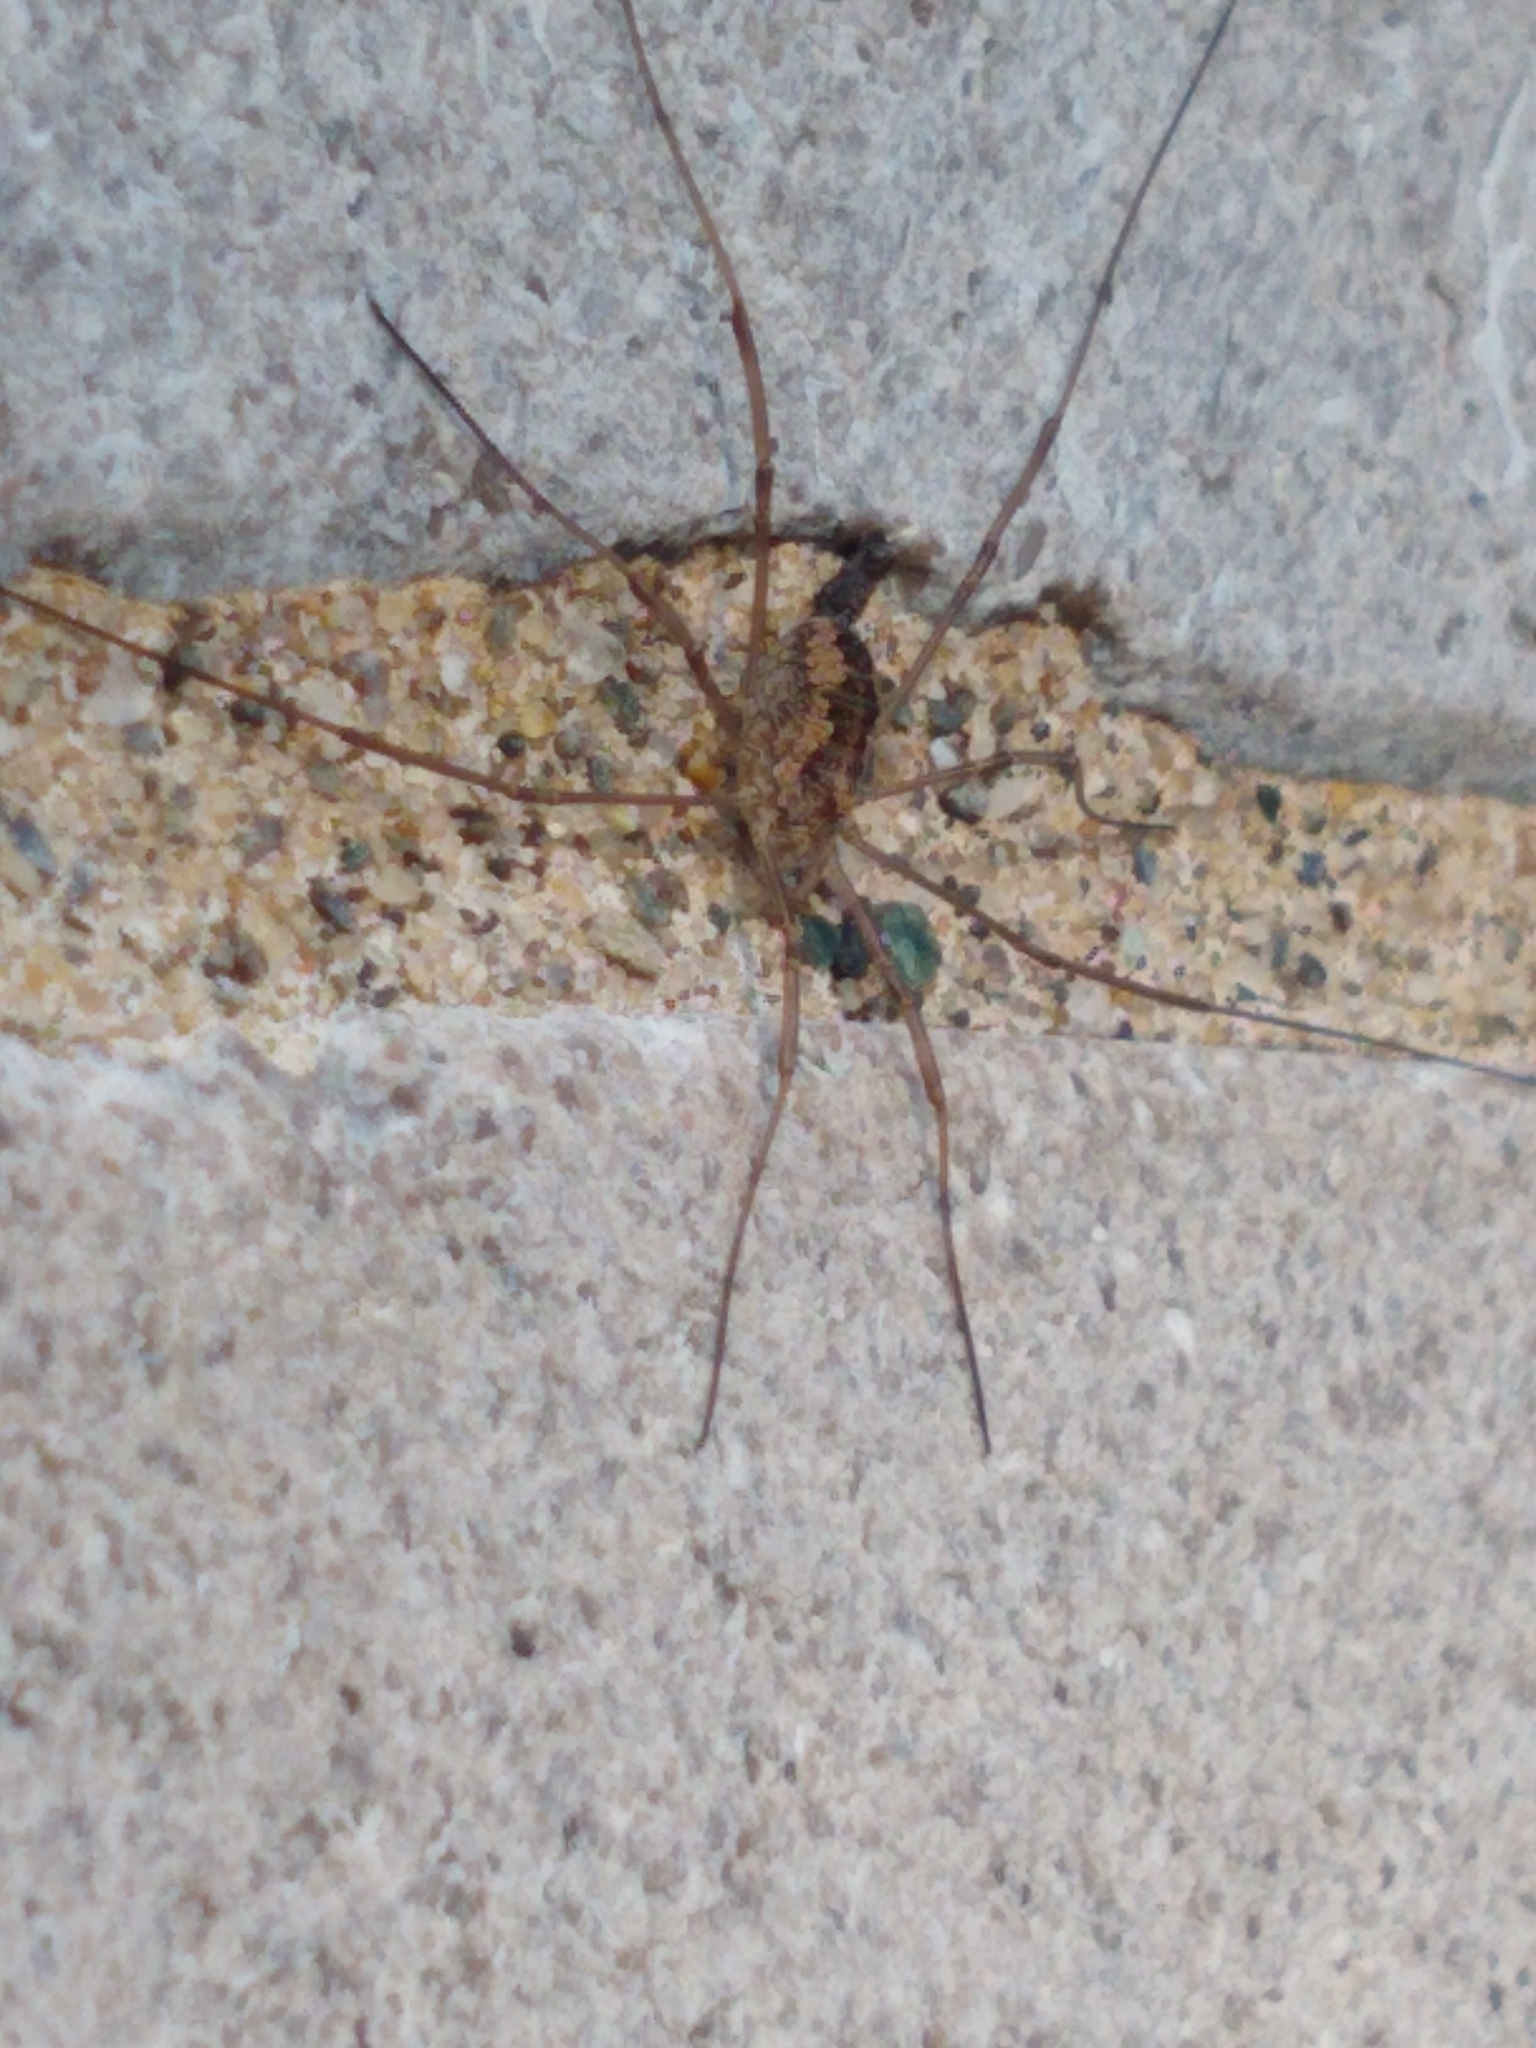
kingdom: Animalia
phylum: Arthropoda
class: Arachnida
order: Opiliones
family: Phalangiidae
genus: Phalangium
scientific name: Phalangium opilio
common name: Daddy longleg
